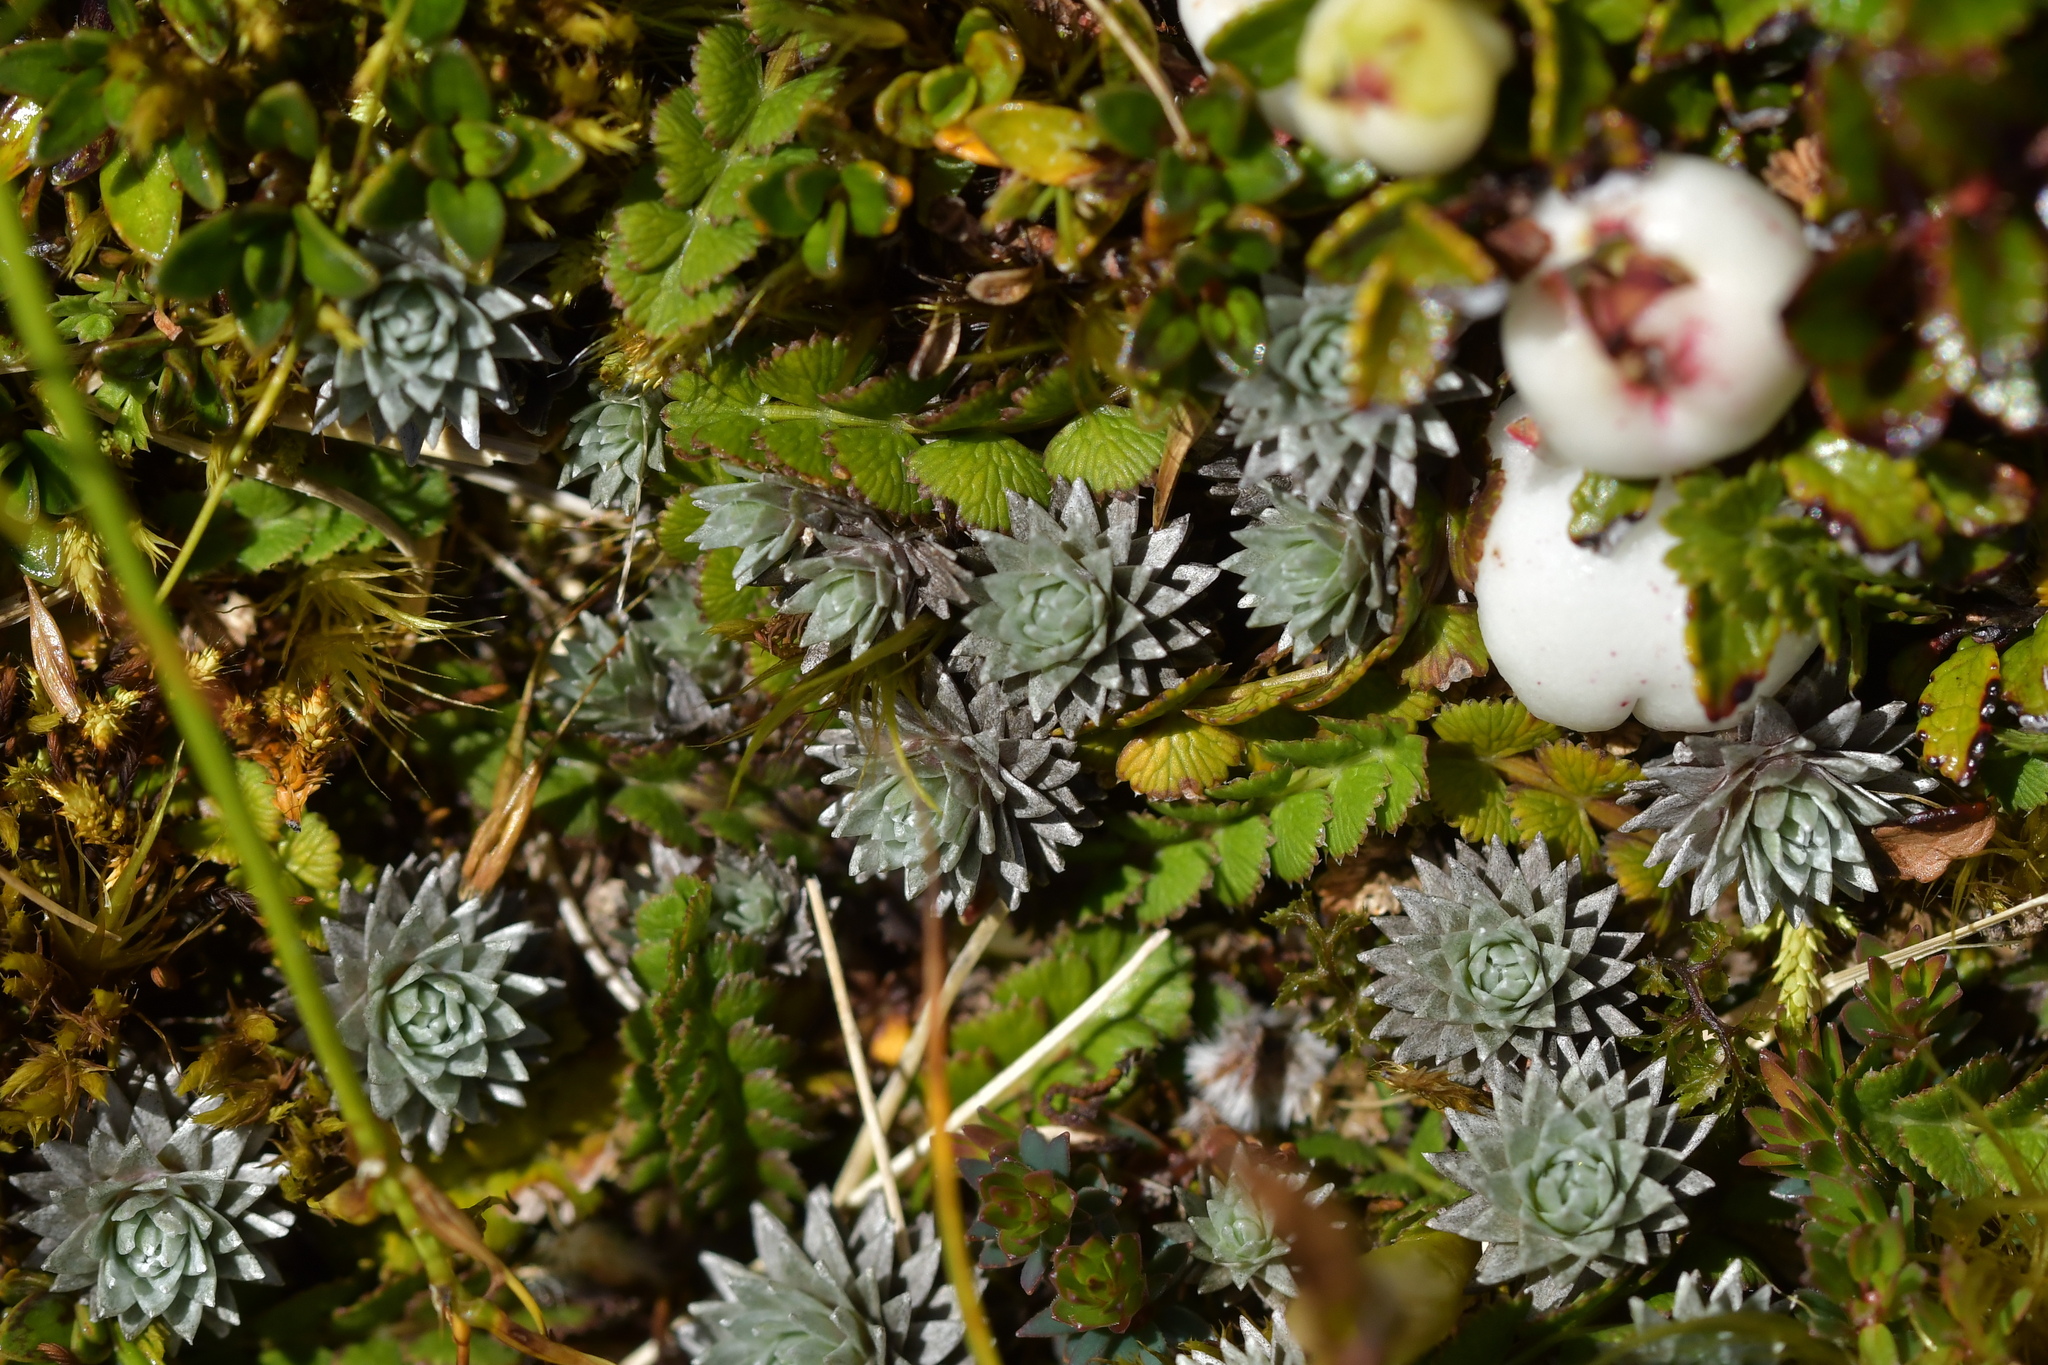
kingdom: Plantae
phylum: Tracheophyta
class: Magnoliopsida
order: Asterales
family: Asteraceae
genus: Raoulia
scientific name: Raoulia grandiflora
